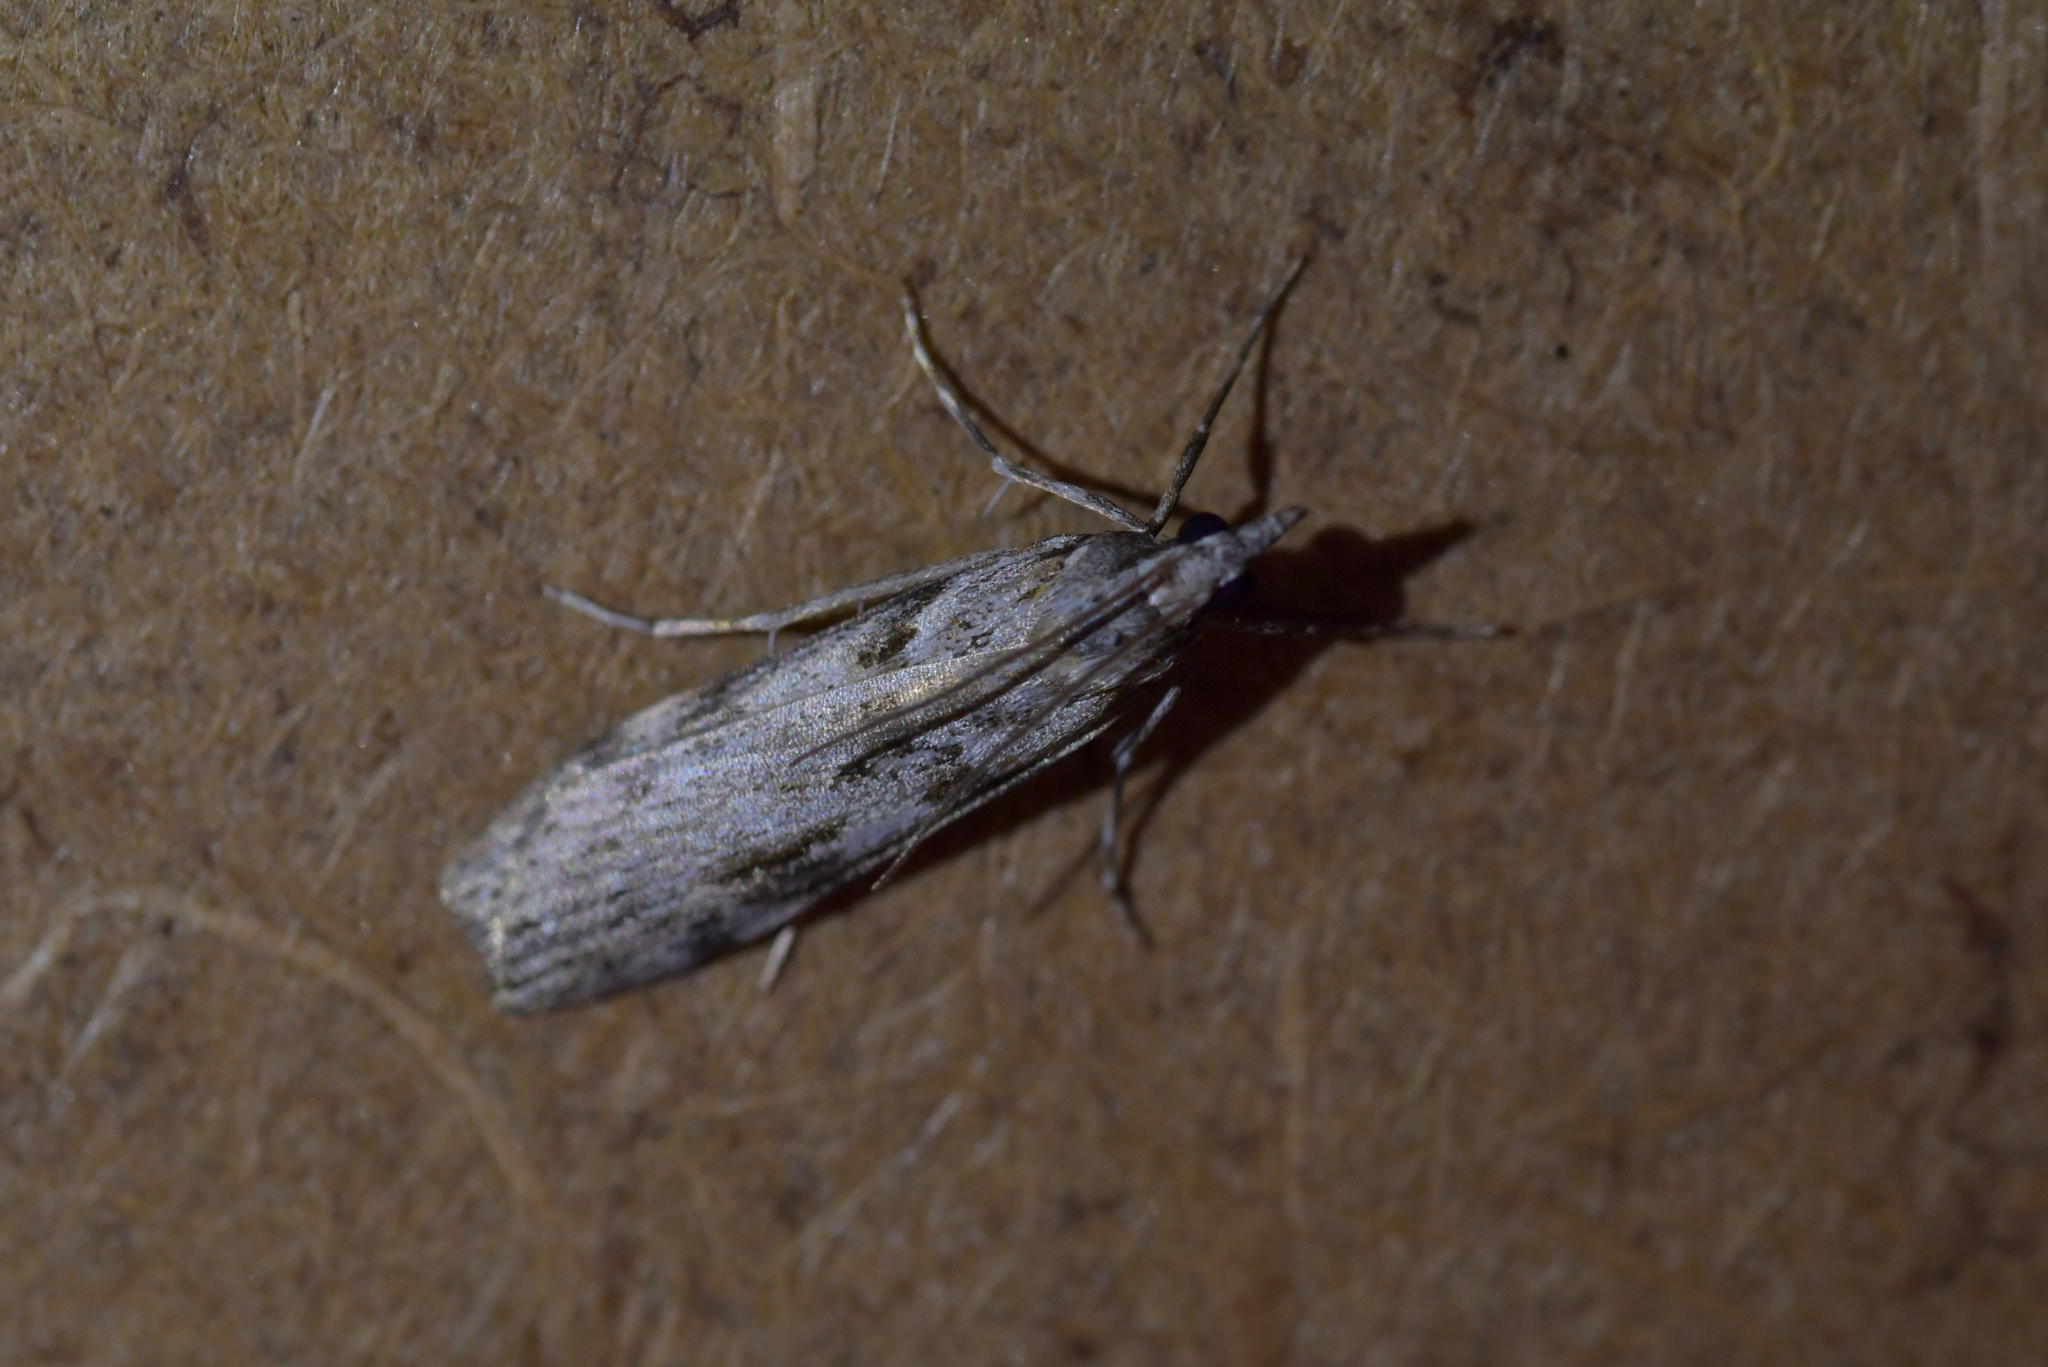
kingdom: Animalia
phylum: Arthropoda
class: Insecta
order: Lepidoptera
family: Crambidae
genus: Scoparia
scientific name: Scoparia halopis
